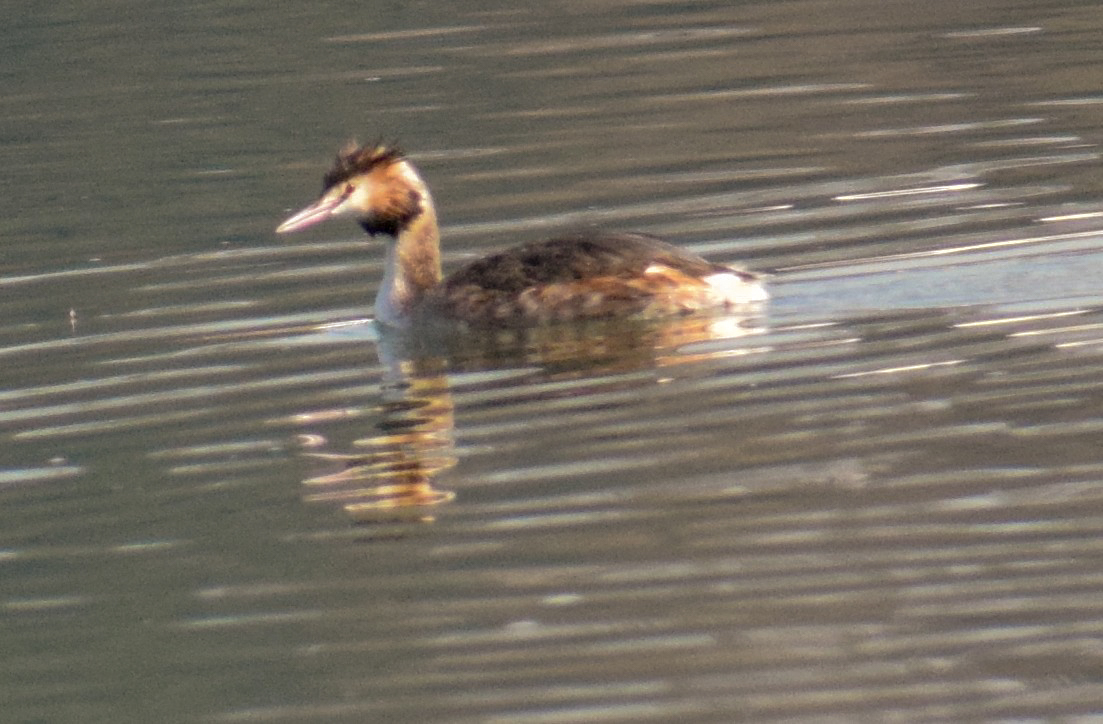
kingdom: Animalia
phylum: Chordata
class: Aves
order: Podicipediformes
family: Podicipedidae
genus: Podiceps
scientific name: Podiceps cristatus
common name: Great crested grebe
